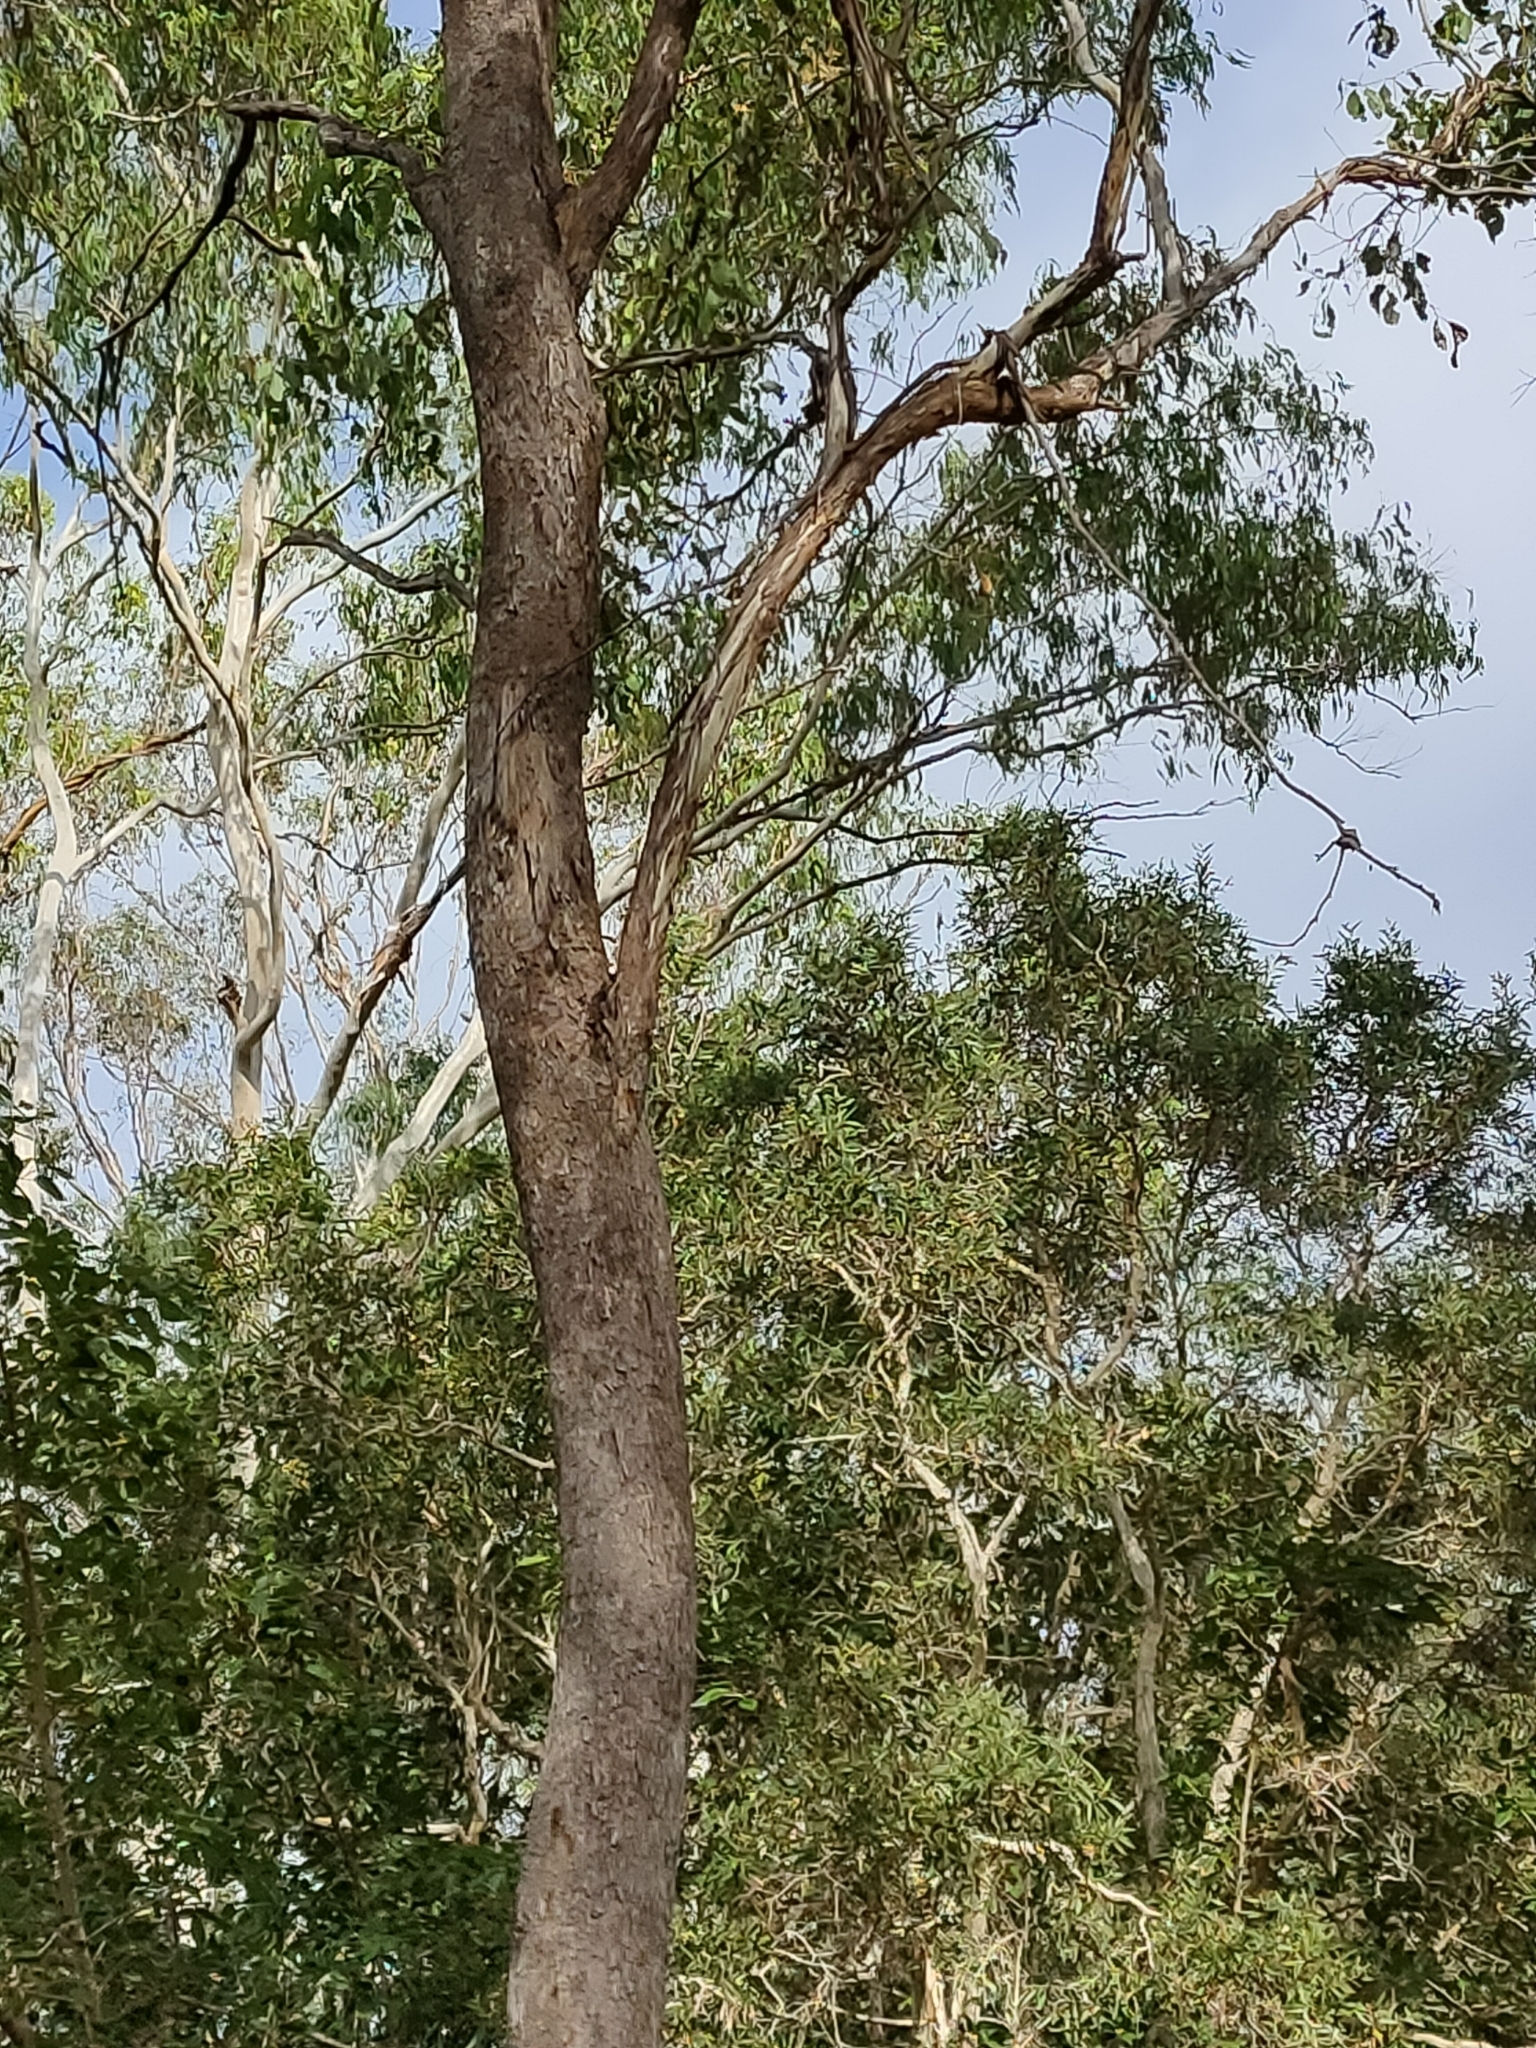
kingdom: Plantae
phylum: Tracheophyta
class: Magnoliopsida
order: Myrtales
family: Myrtaceae
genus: Eucalyptus
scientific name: Eucalyptus moluccana
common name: Grey-box
